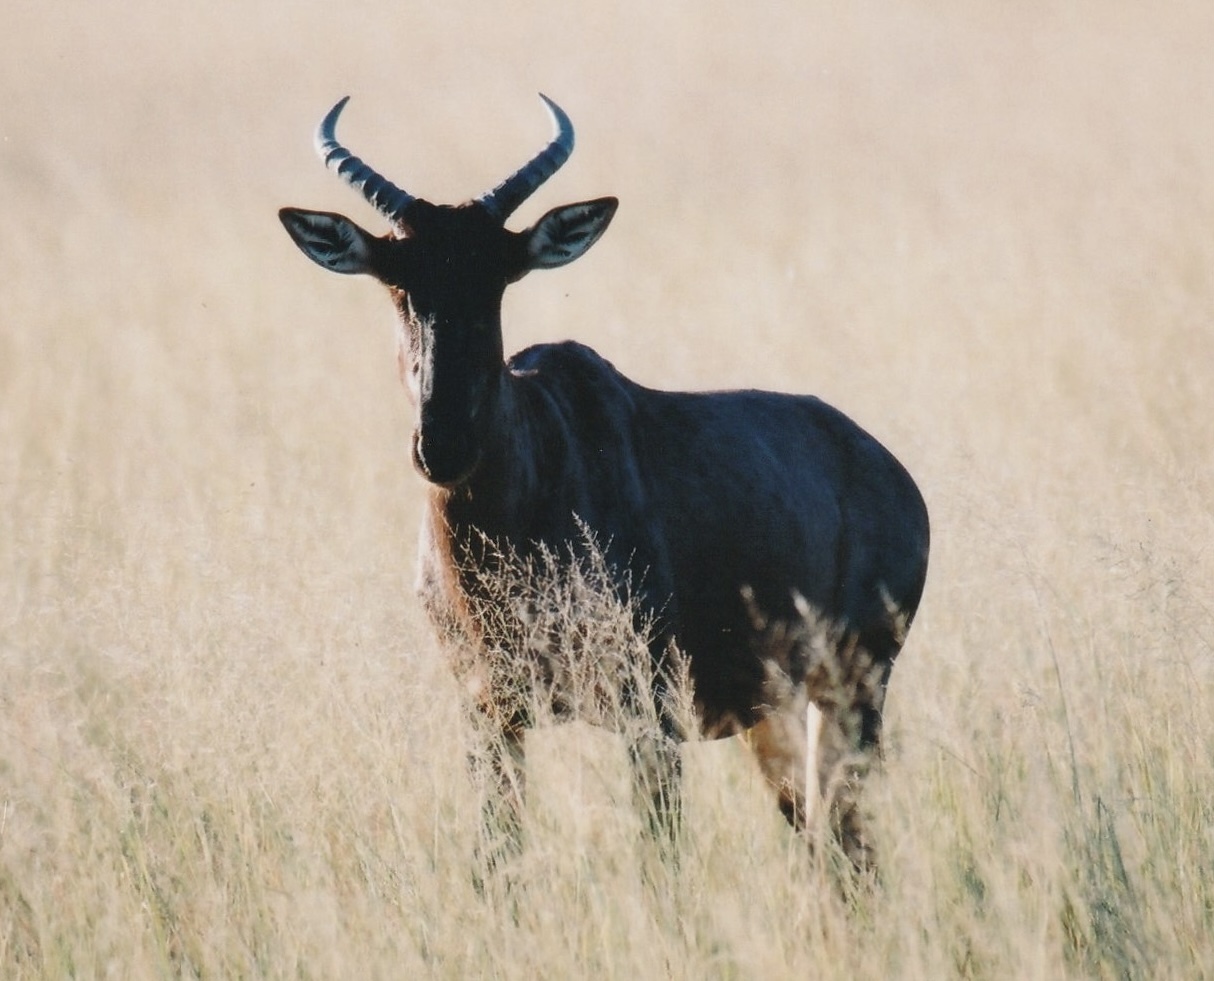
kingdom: Animalia
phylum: Chordata
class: Mammalia
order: Artiodactyla
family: Bovidae
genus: Damaliscus
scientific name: Damaliscus lunatus
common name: Common tsessebe
